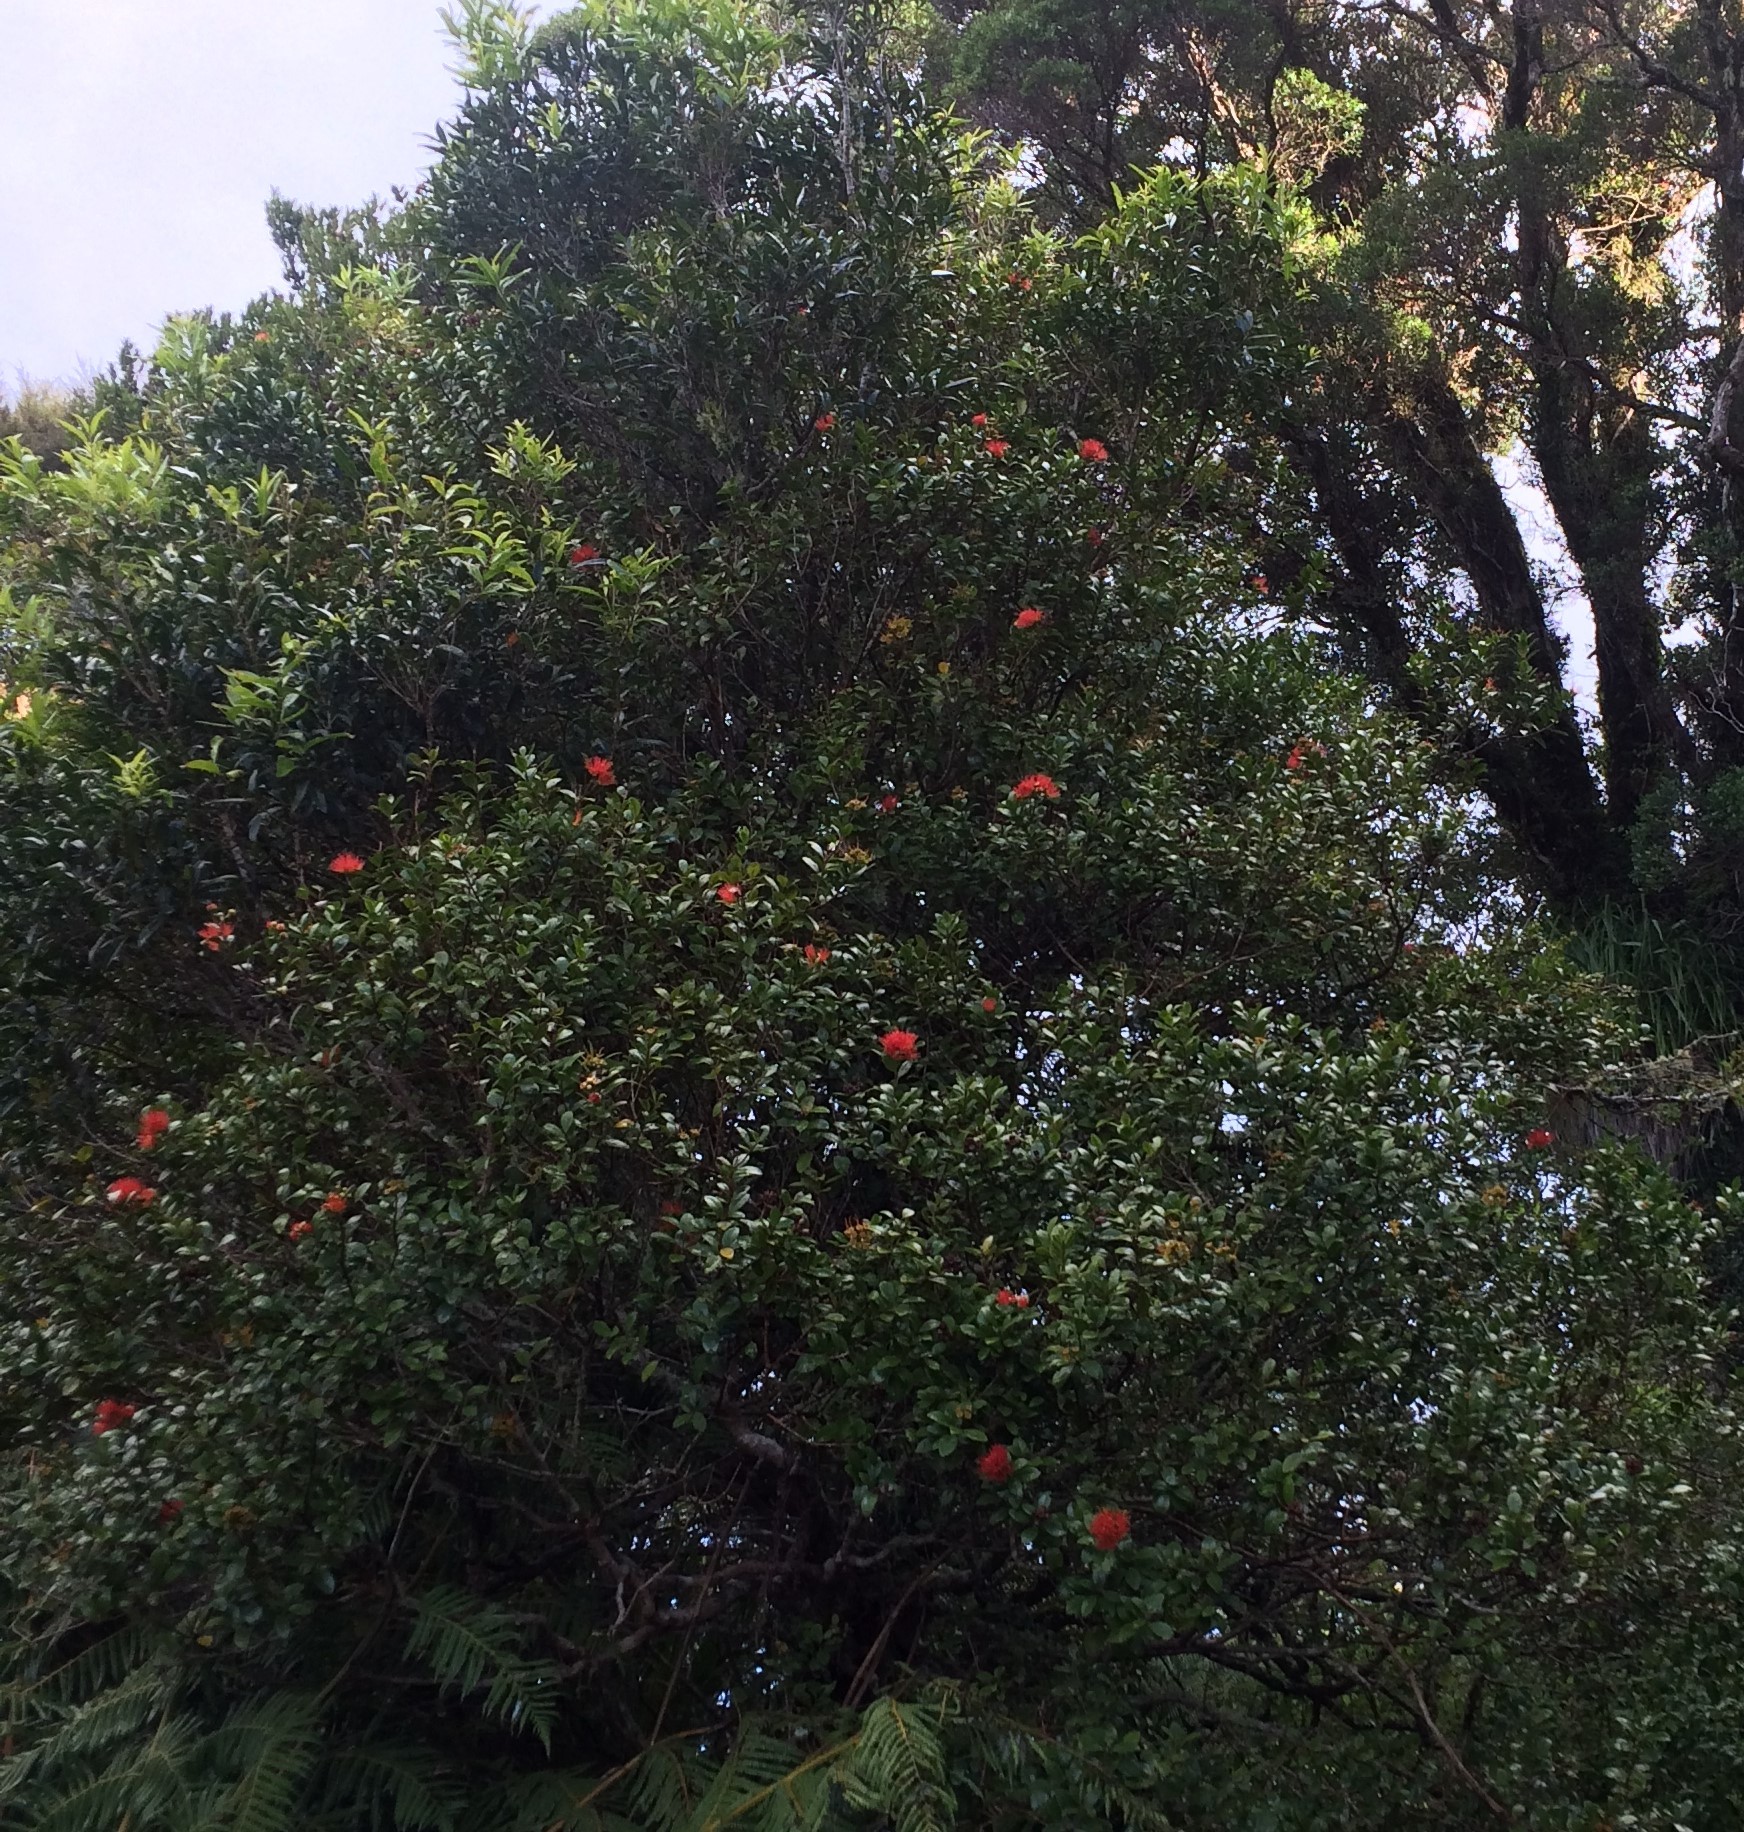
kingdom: Plantae
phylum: Tracheophyta
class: Magnoliopsida
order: Myrtales
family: Myrtaceae
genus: Metrosideros
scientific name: Metrosideros fulgens
